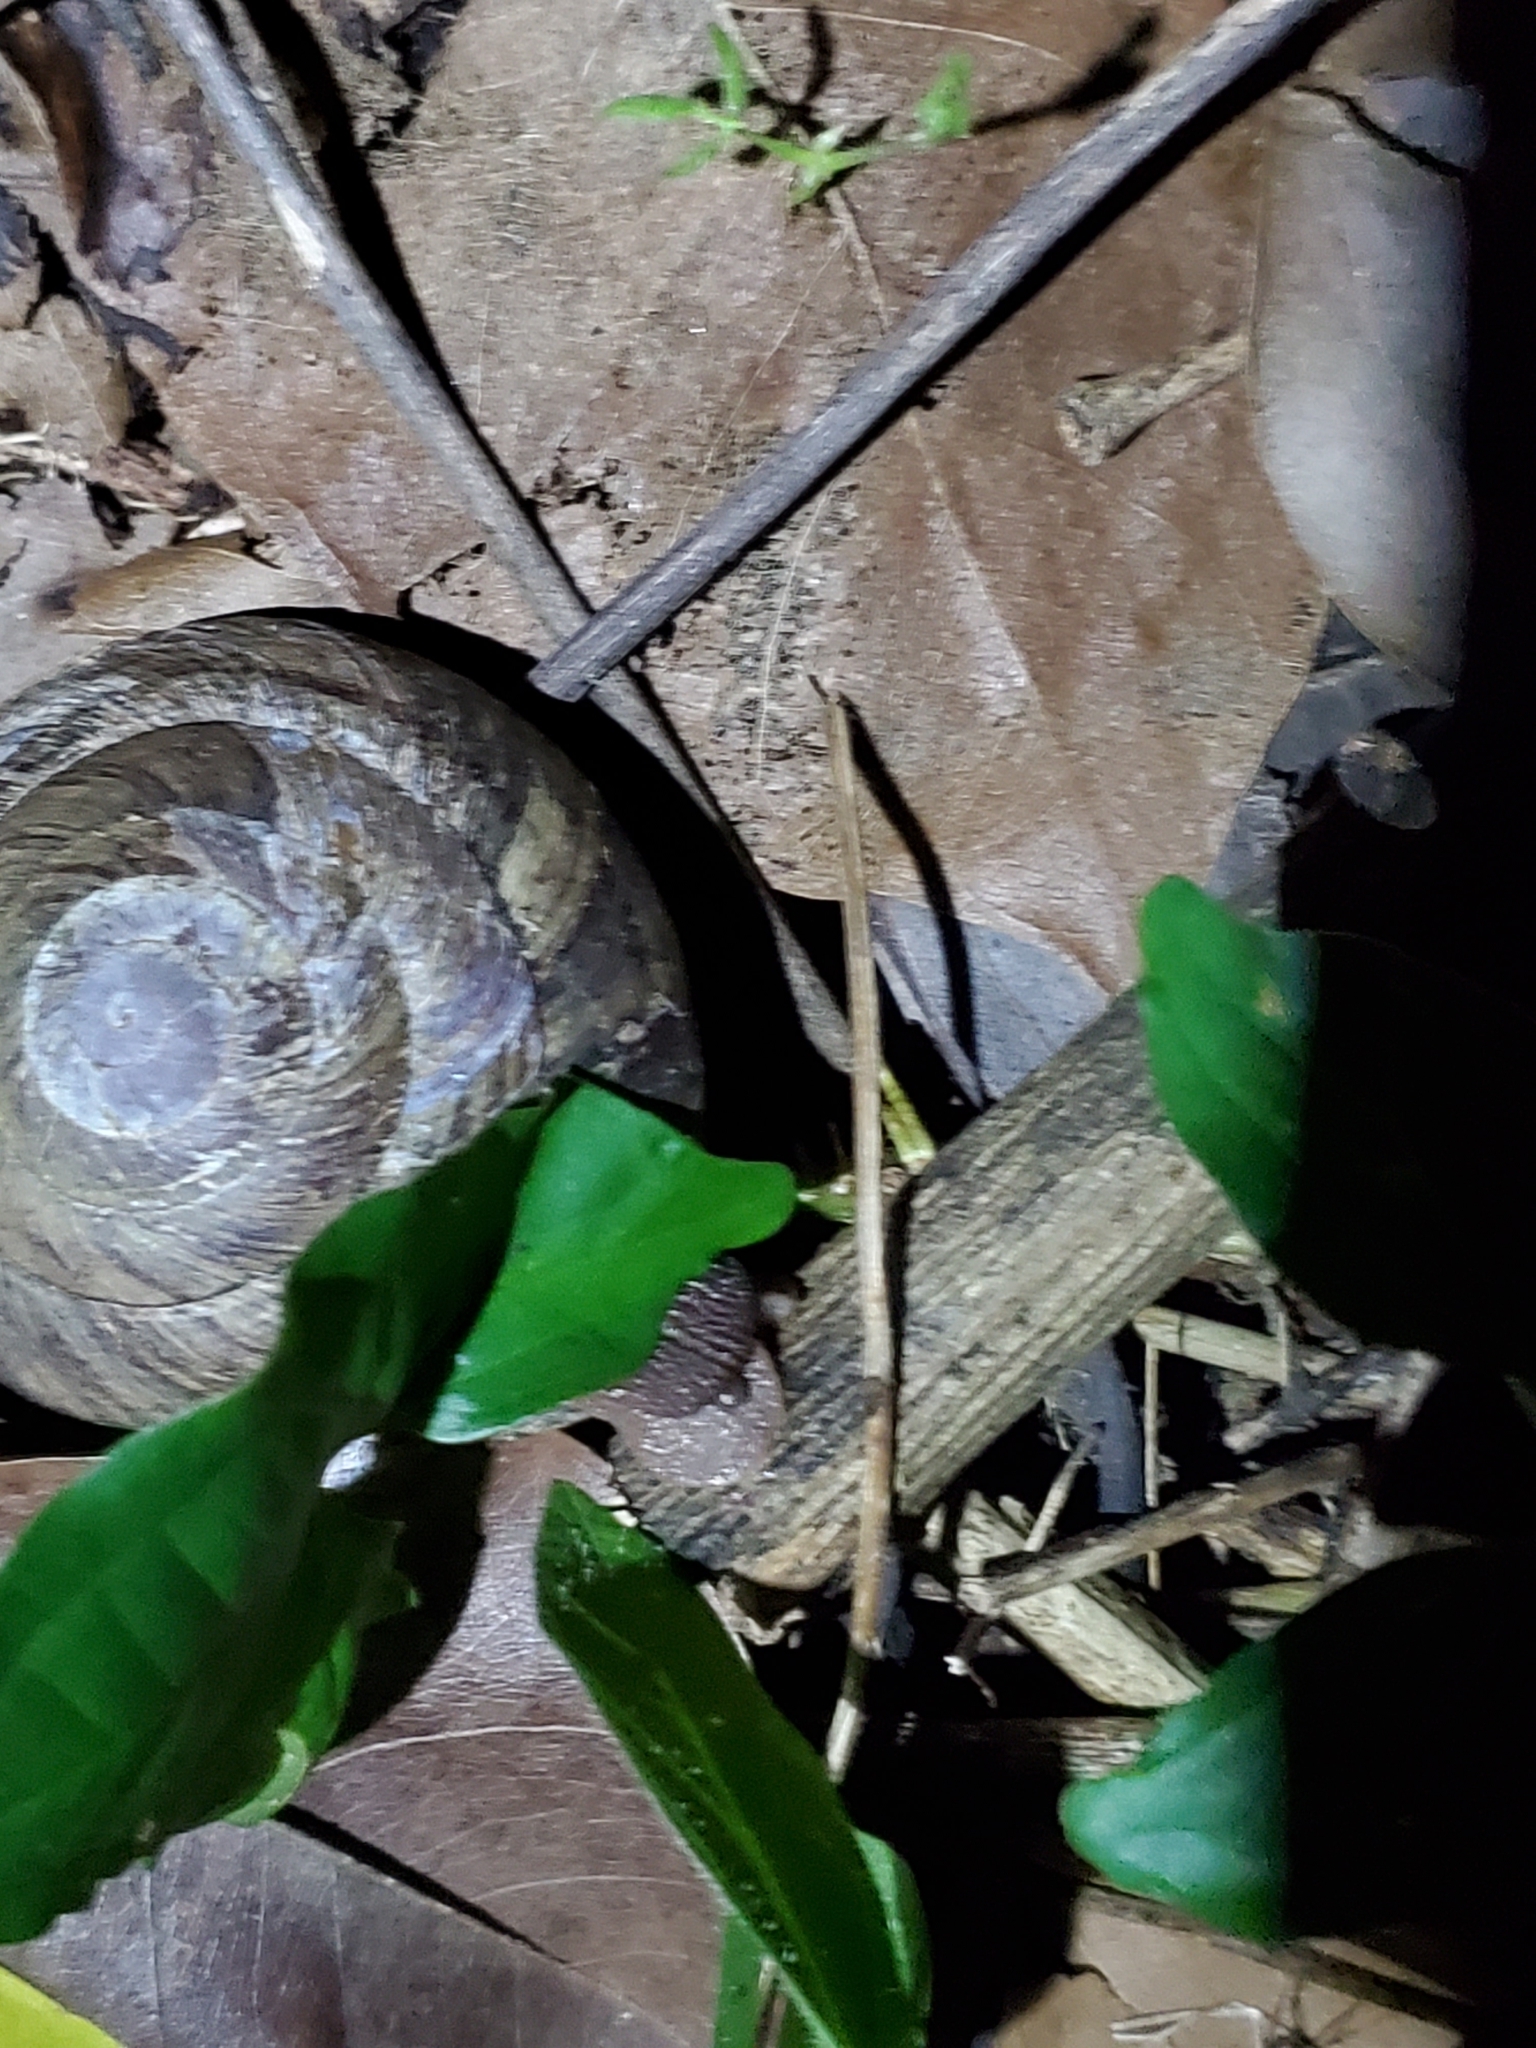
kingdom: Animalia
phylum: Mollusca
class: Gastropoda
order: Stylommatophora
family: Solaropsidae
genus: Caracolus
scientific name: Caracolus carocolla
